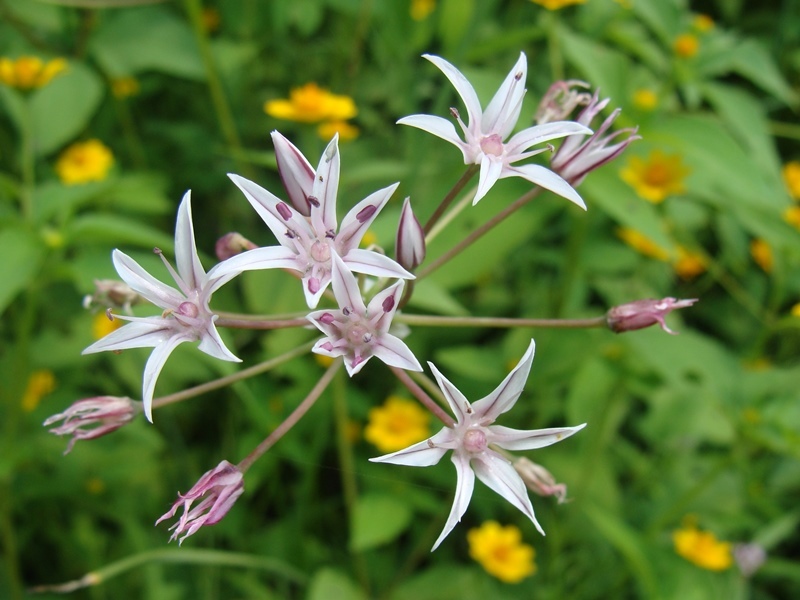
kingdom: Plantae
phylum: Tracheophyta
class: Liliopsida
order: Asparagales
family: Amaryllidaceae
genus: Allium
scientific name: Allium glandulosum
